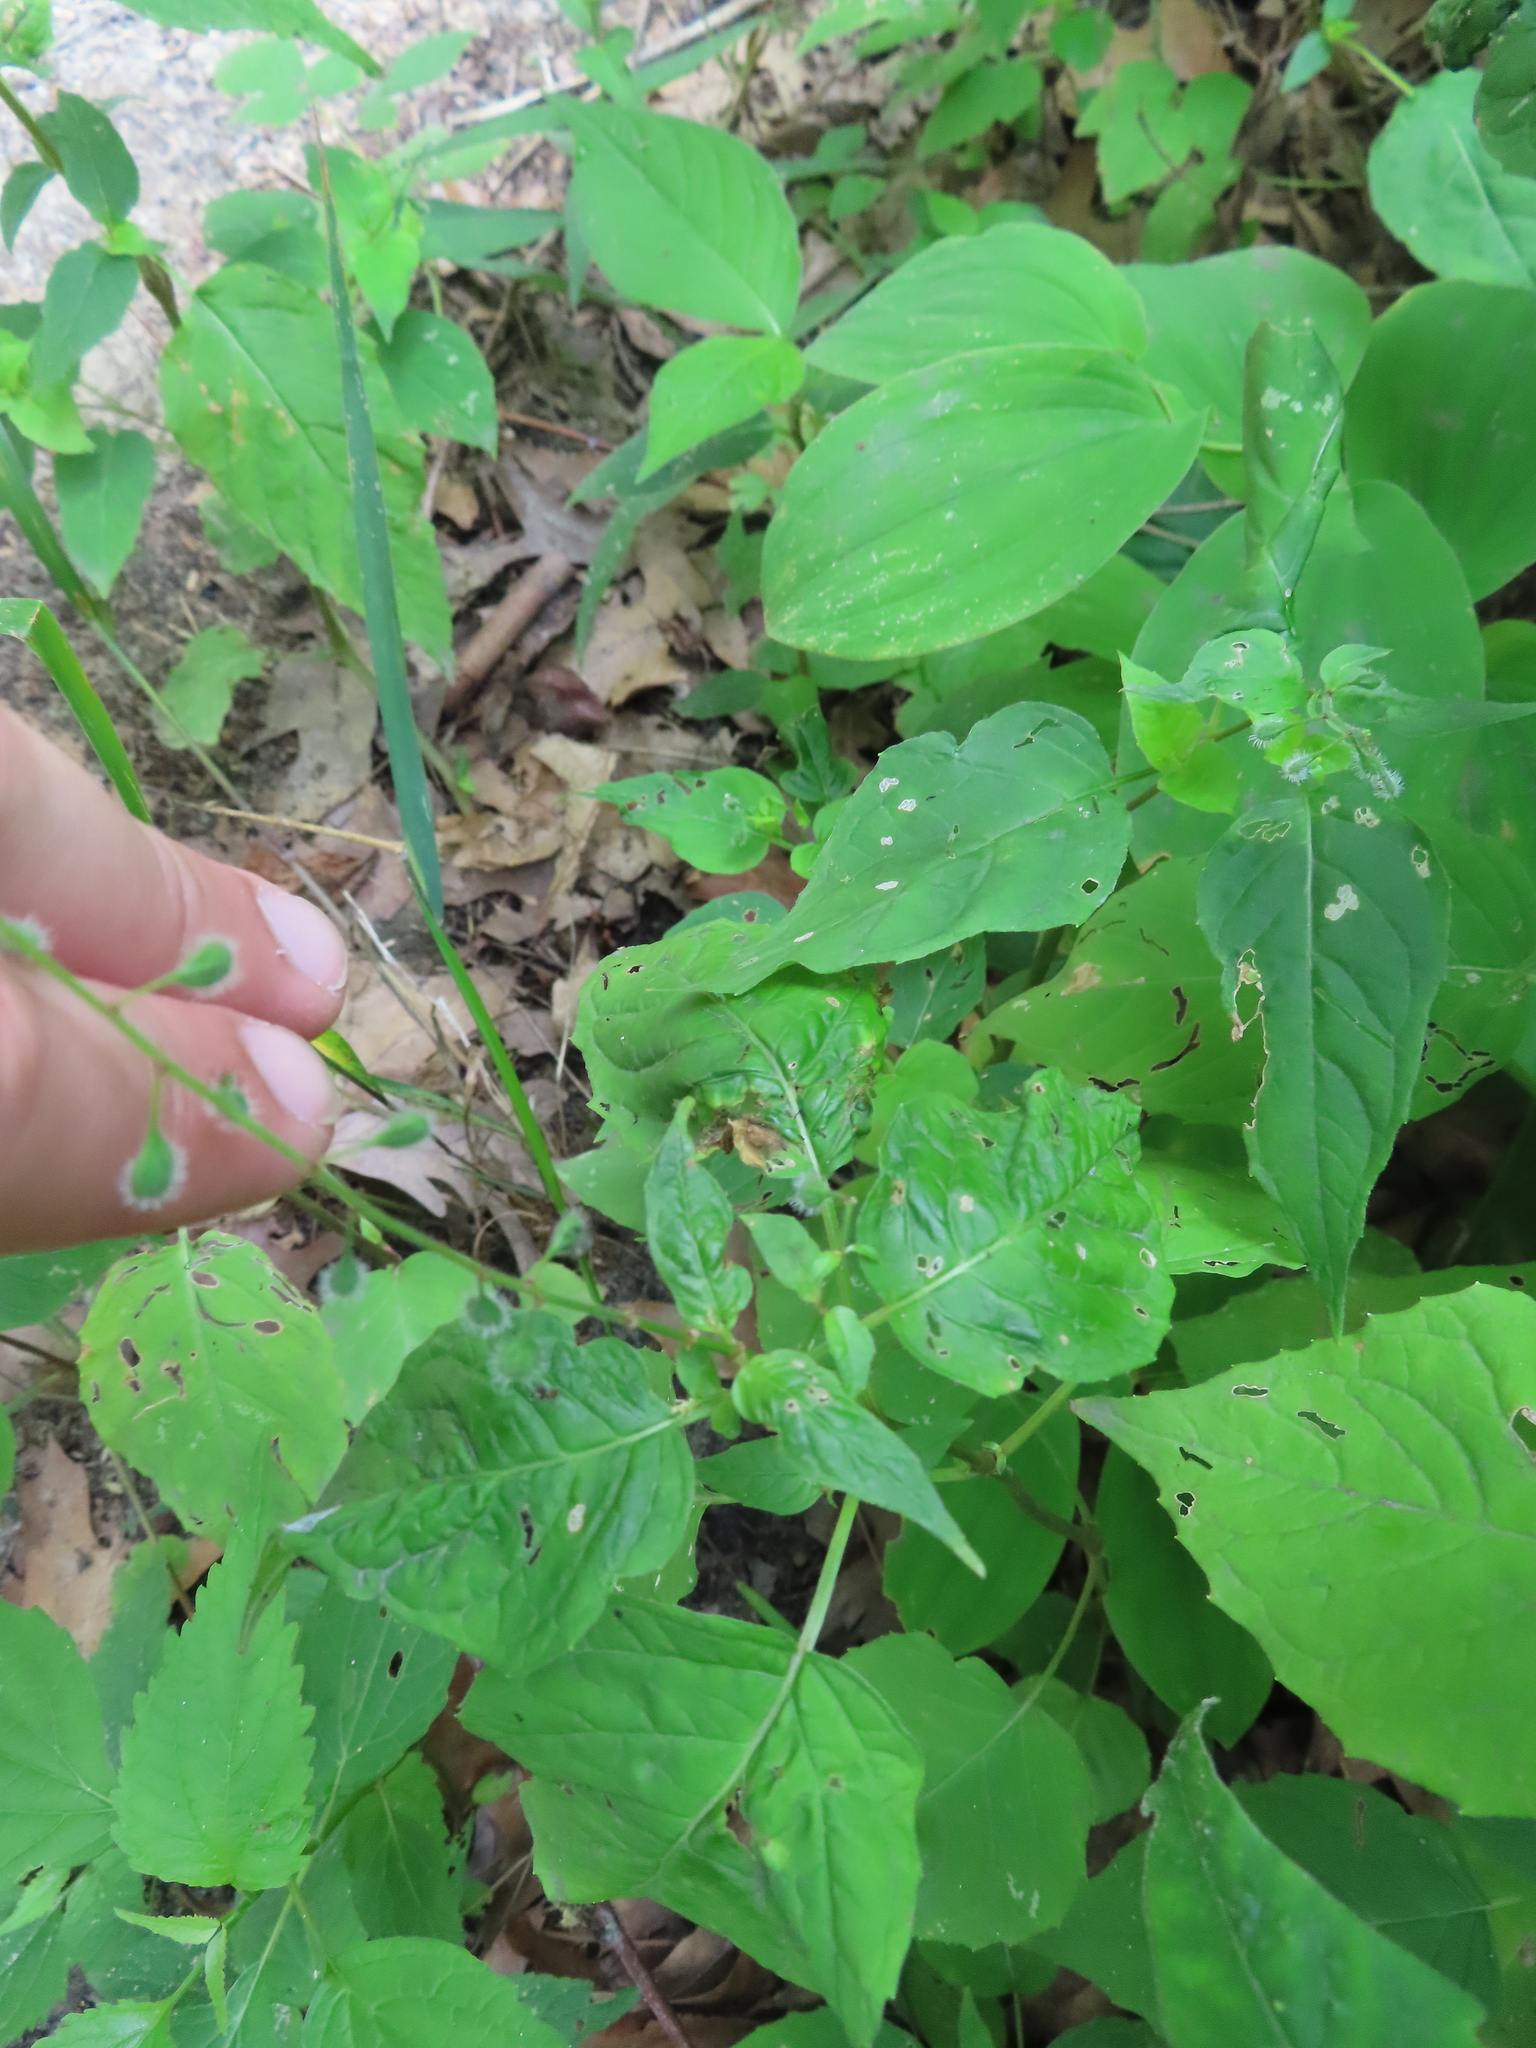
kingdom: Plantae
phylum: Tracheophyta
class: Magnoliopsida
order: Myrtales
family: Onagraceae
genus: Circaea
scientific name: Circaea canadensis
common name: Broad-leaved enchanter's nightshade
